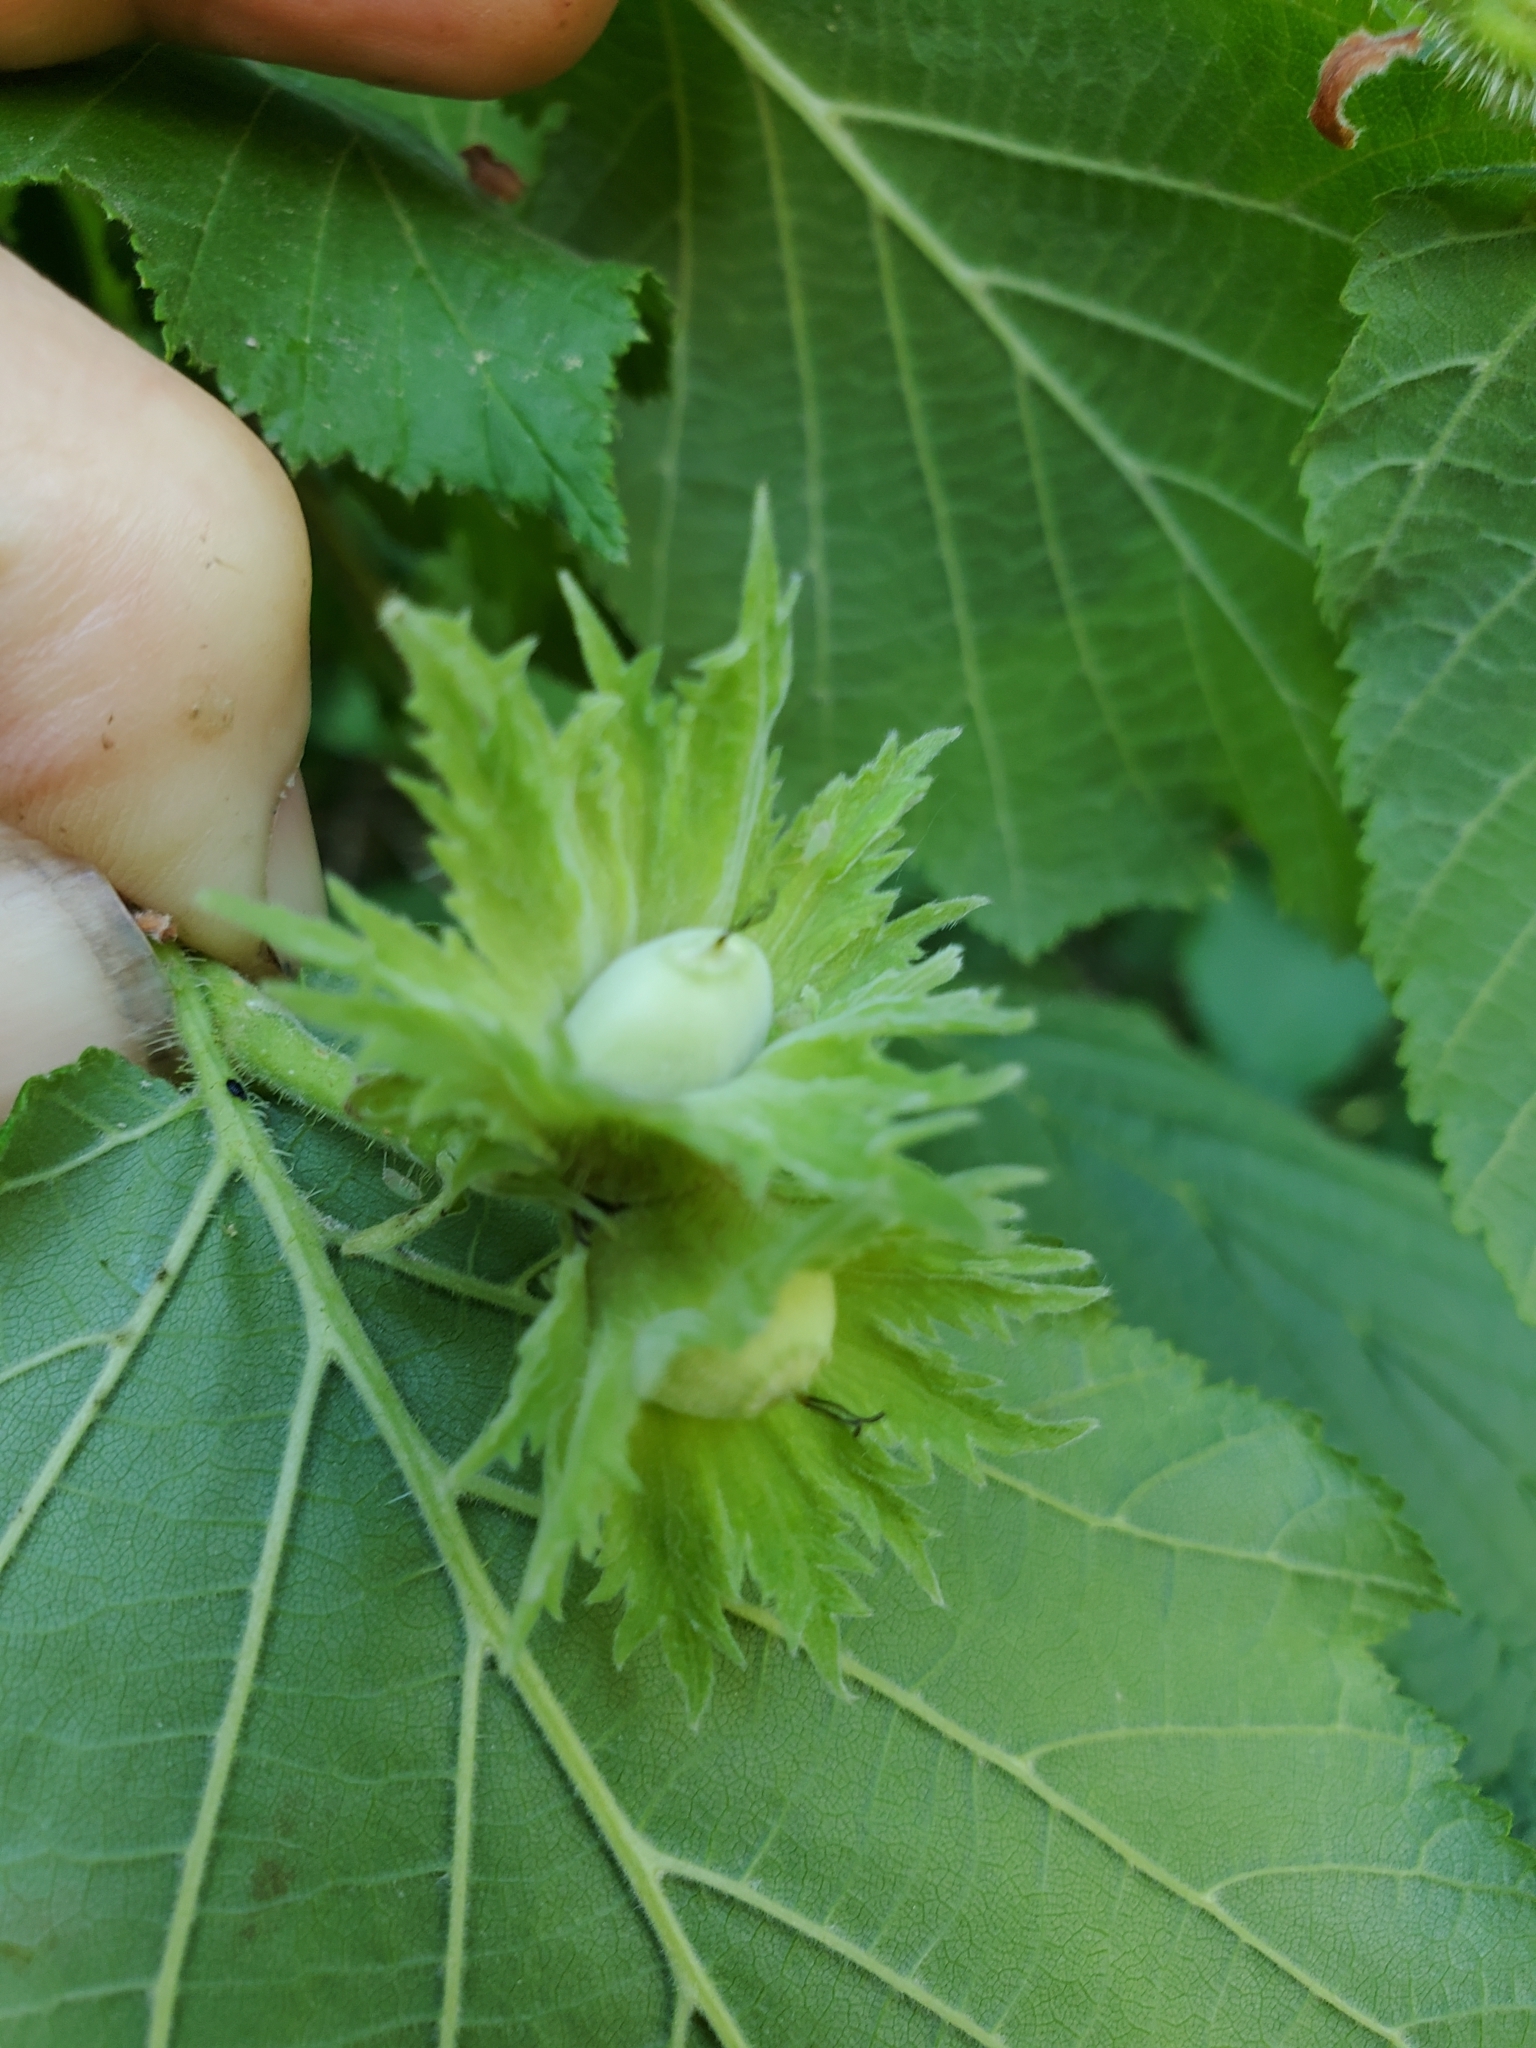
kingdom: Plantae
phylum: Tracheophyta
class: Magnoliopsida
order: Fagales
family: Betulaceae
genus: Corylus
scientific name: Corylus avellana
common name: European hazel
